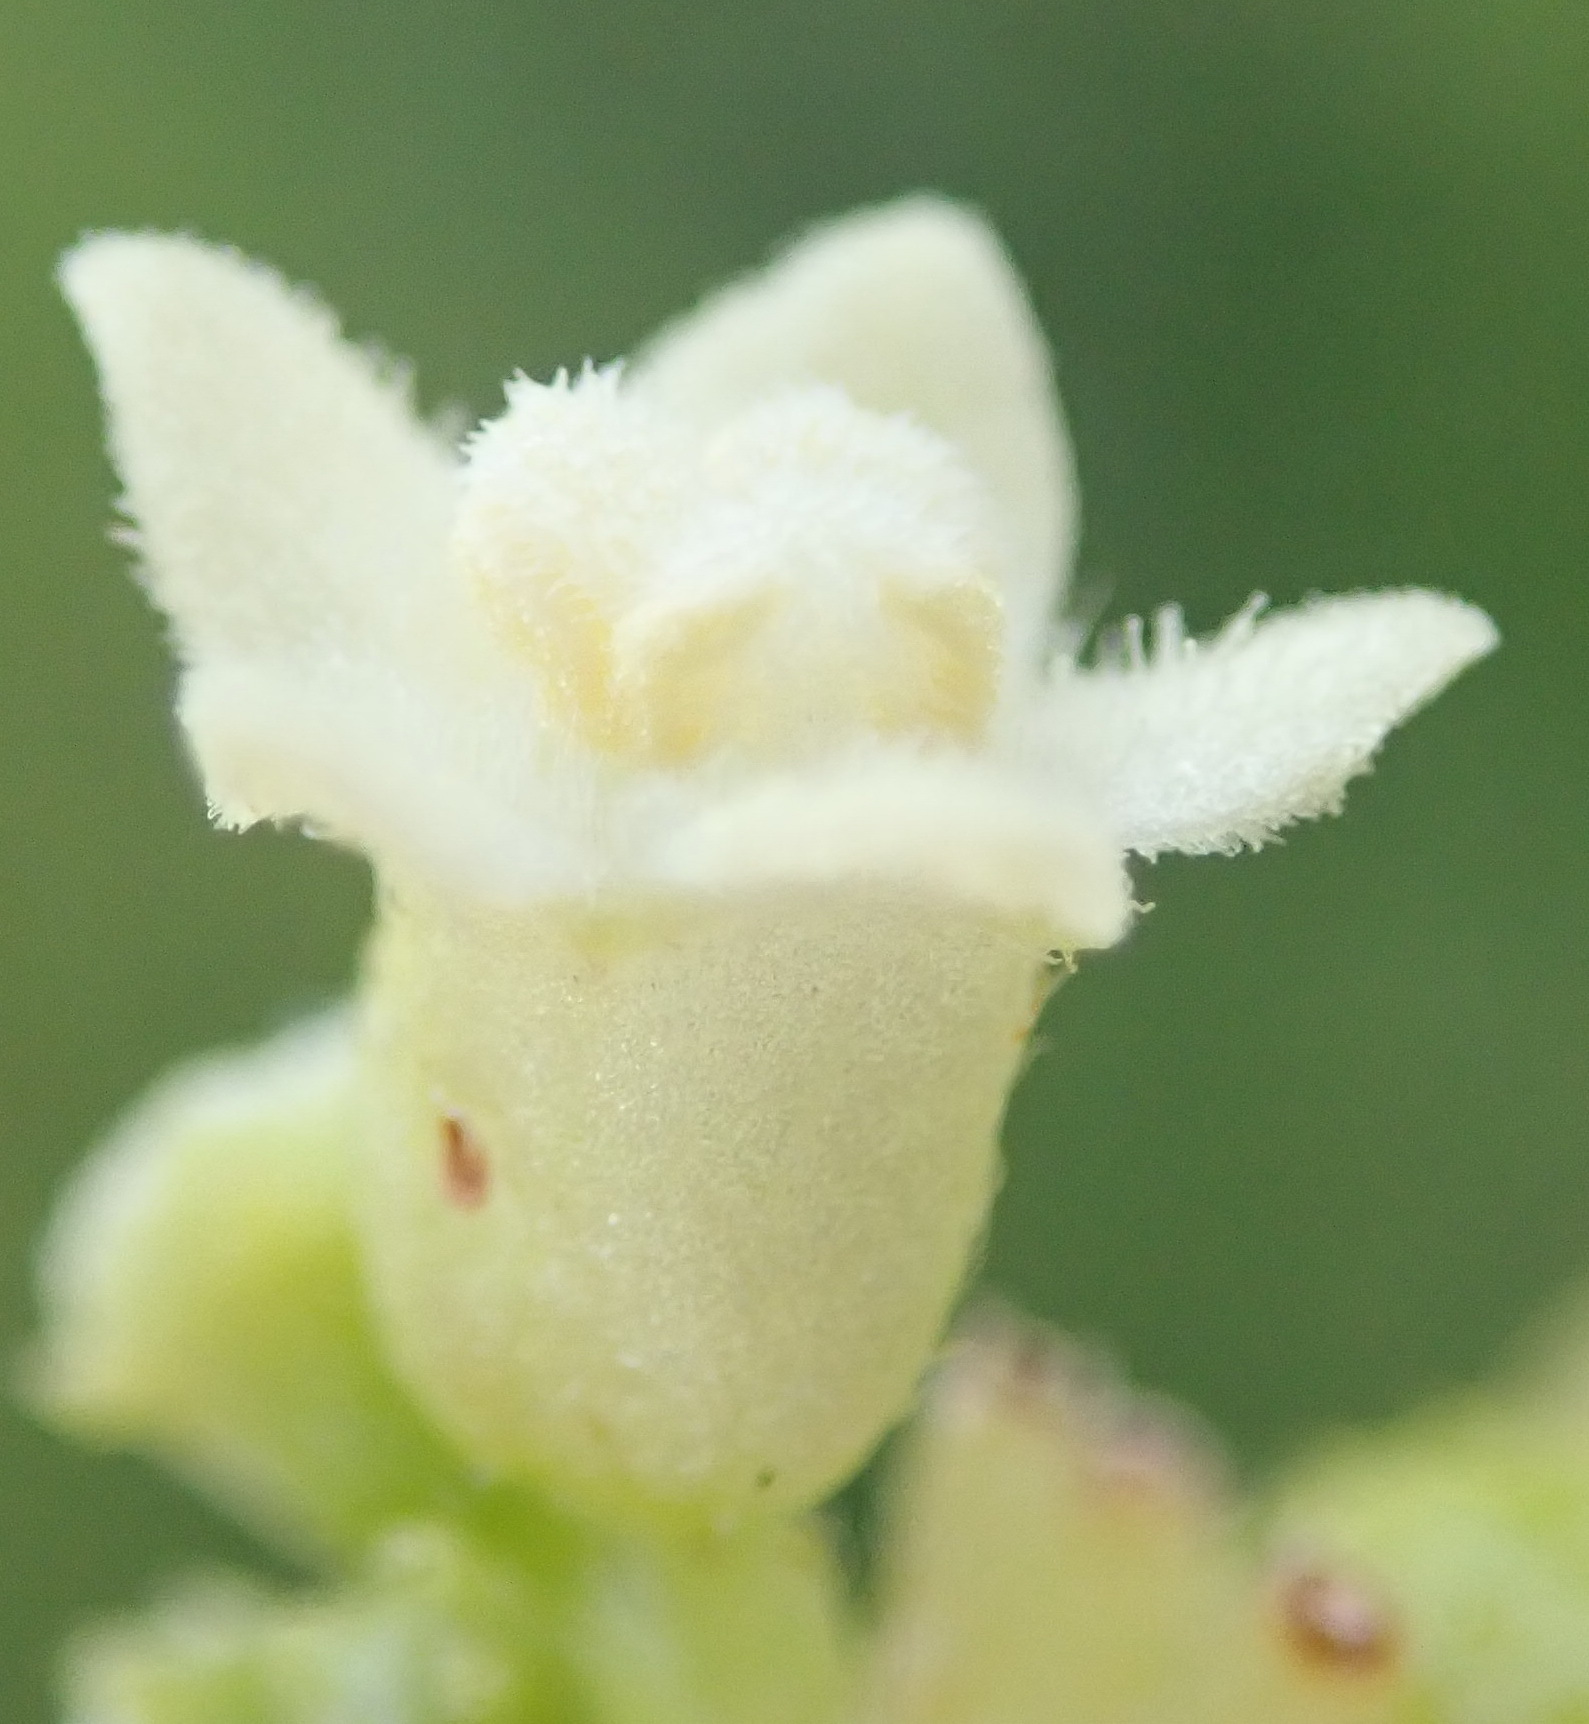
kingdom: Plantae
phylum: Tracheophyta
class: Magnoliopsida
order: Cucurbitales
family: Cucurbitaceae
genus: Zehneria
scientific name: Zehneria scabra
